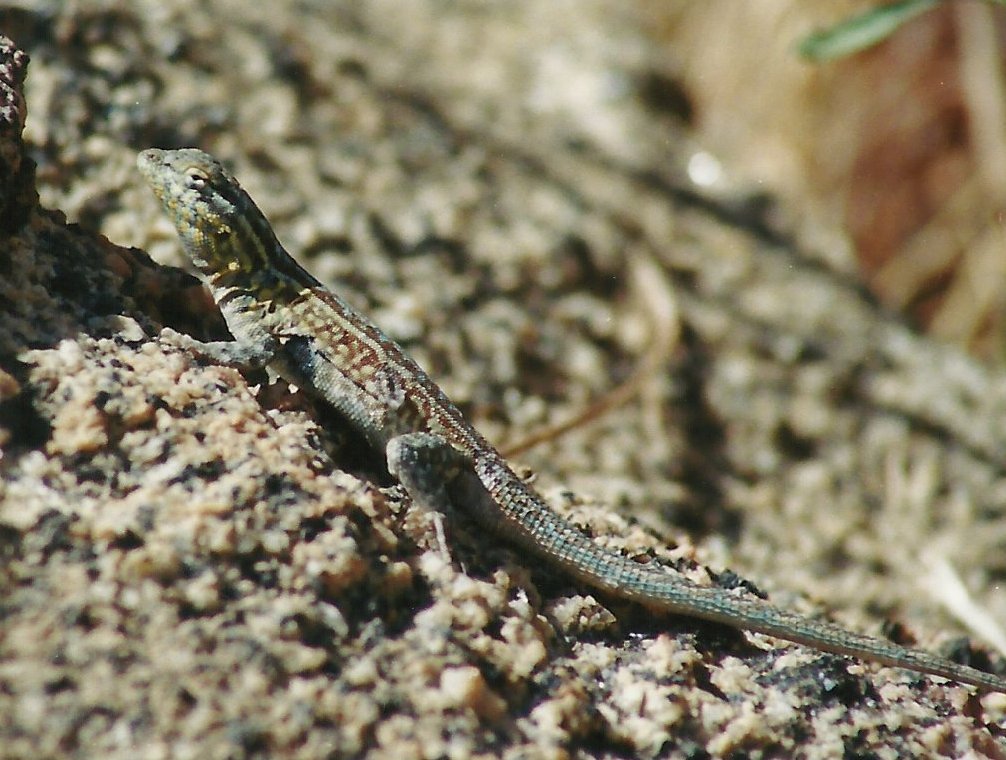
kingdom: Animalia
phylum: Chordata
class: Squamata
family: Phrynosomatidae
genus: Uta
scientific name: Uta stansburiana
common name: Side-blotched lizard
